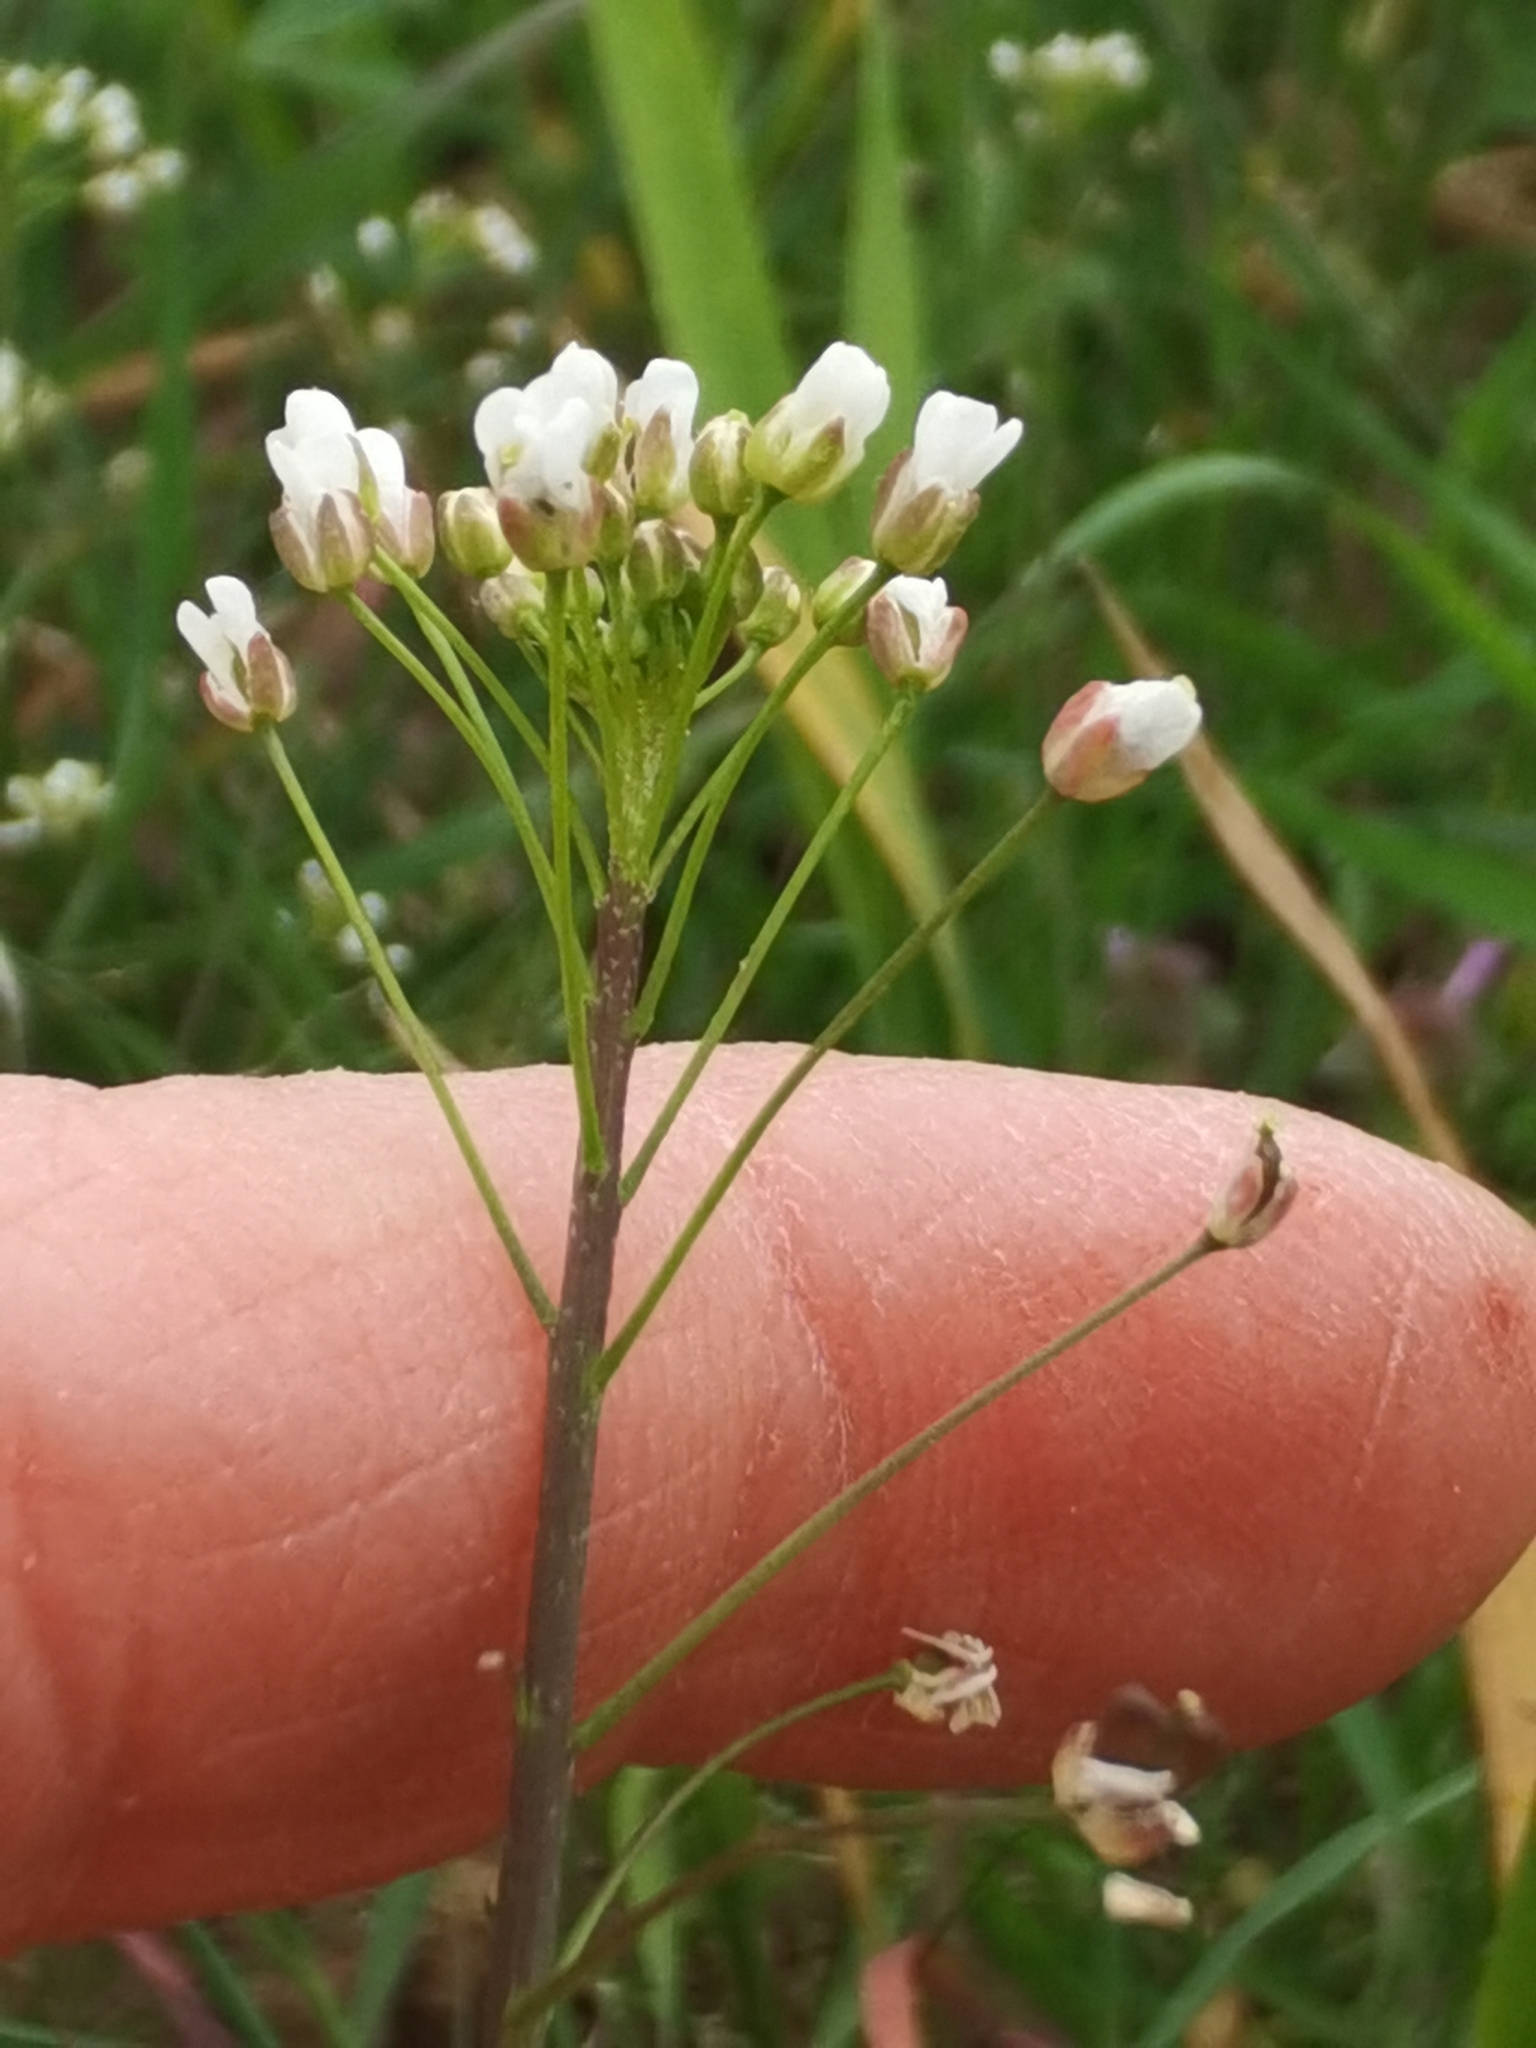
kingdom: Plantae
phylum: Tracheophyta
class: Magnoliopsida
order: Brassicales
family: Brassicaceae
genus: Capsella
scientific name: Capsella bursa-pastoris
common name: Shepherd's purse
